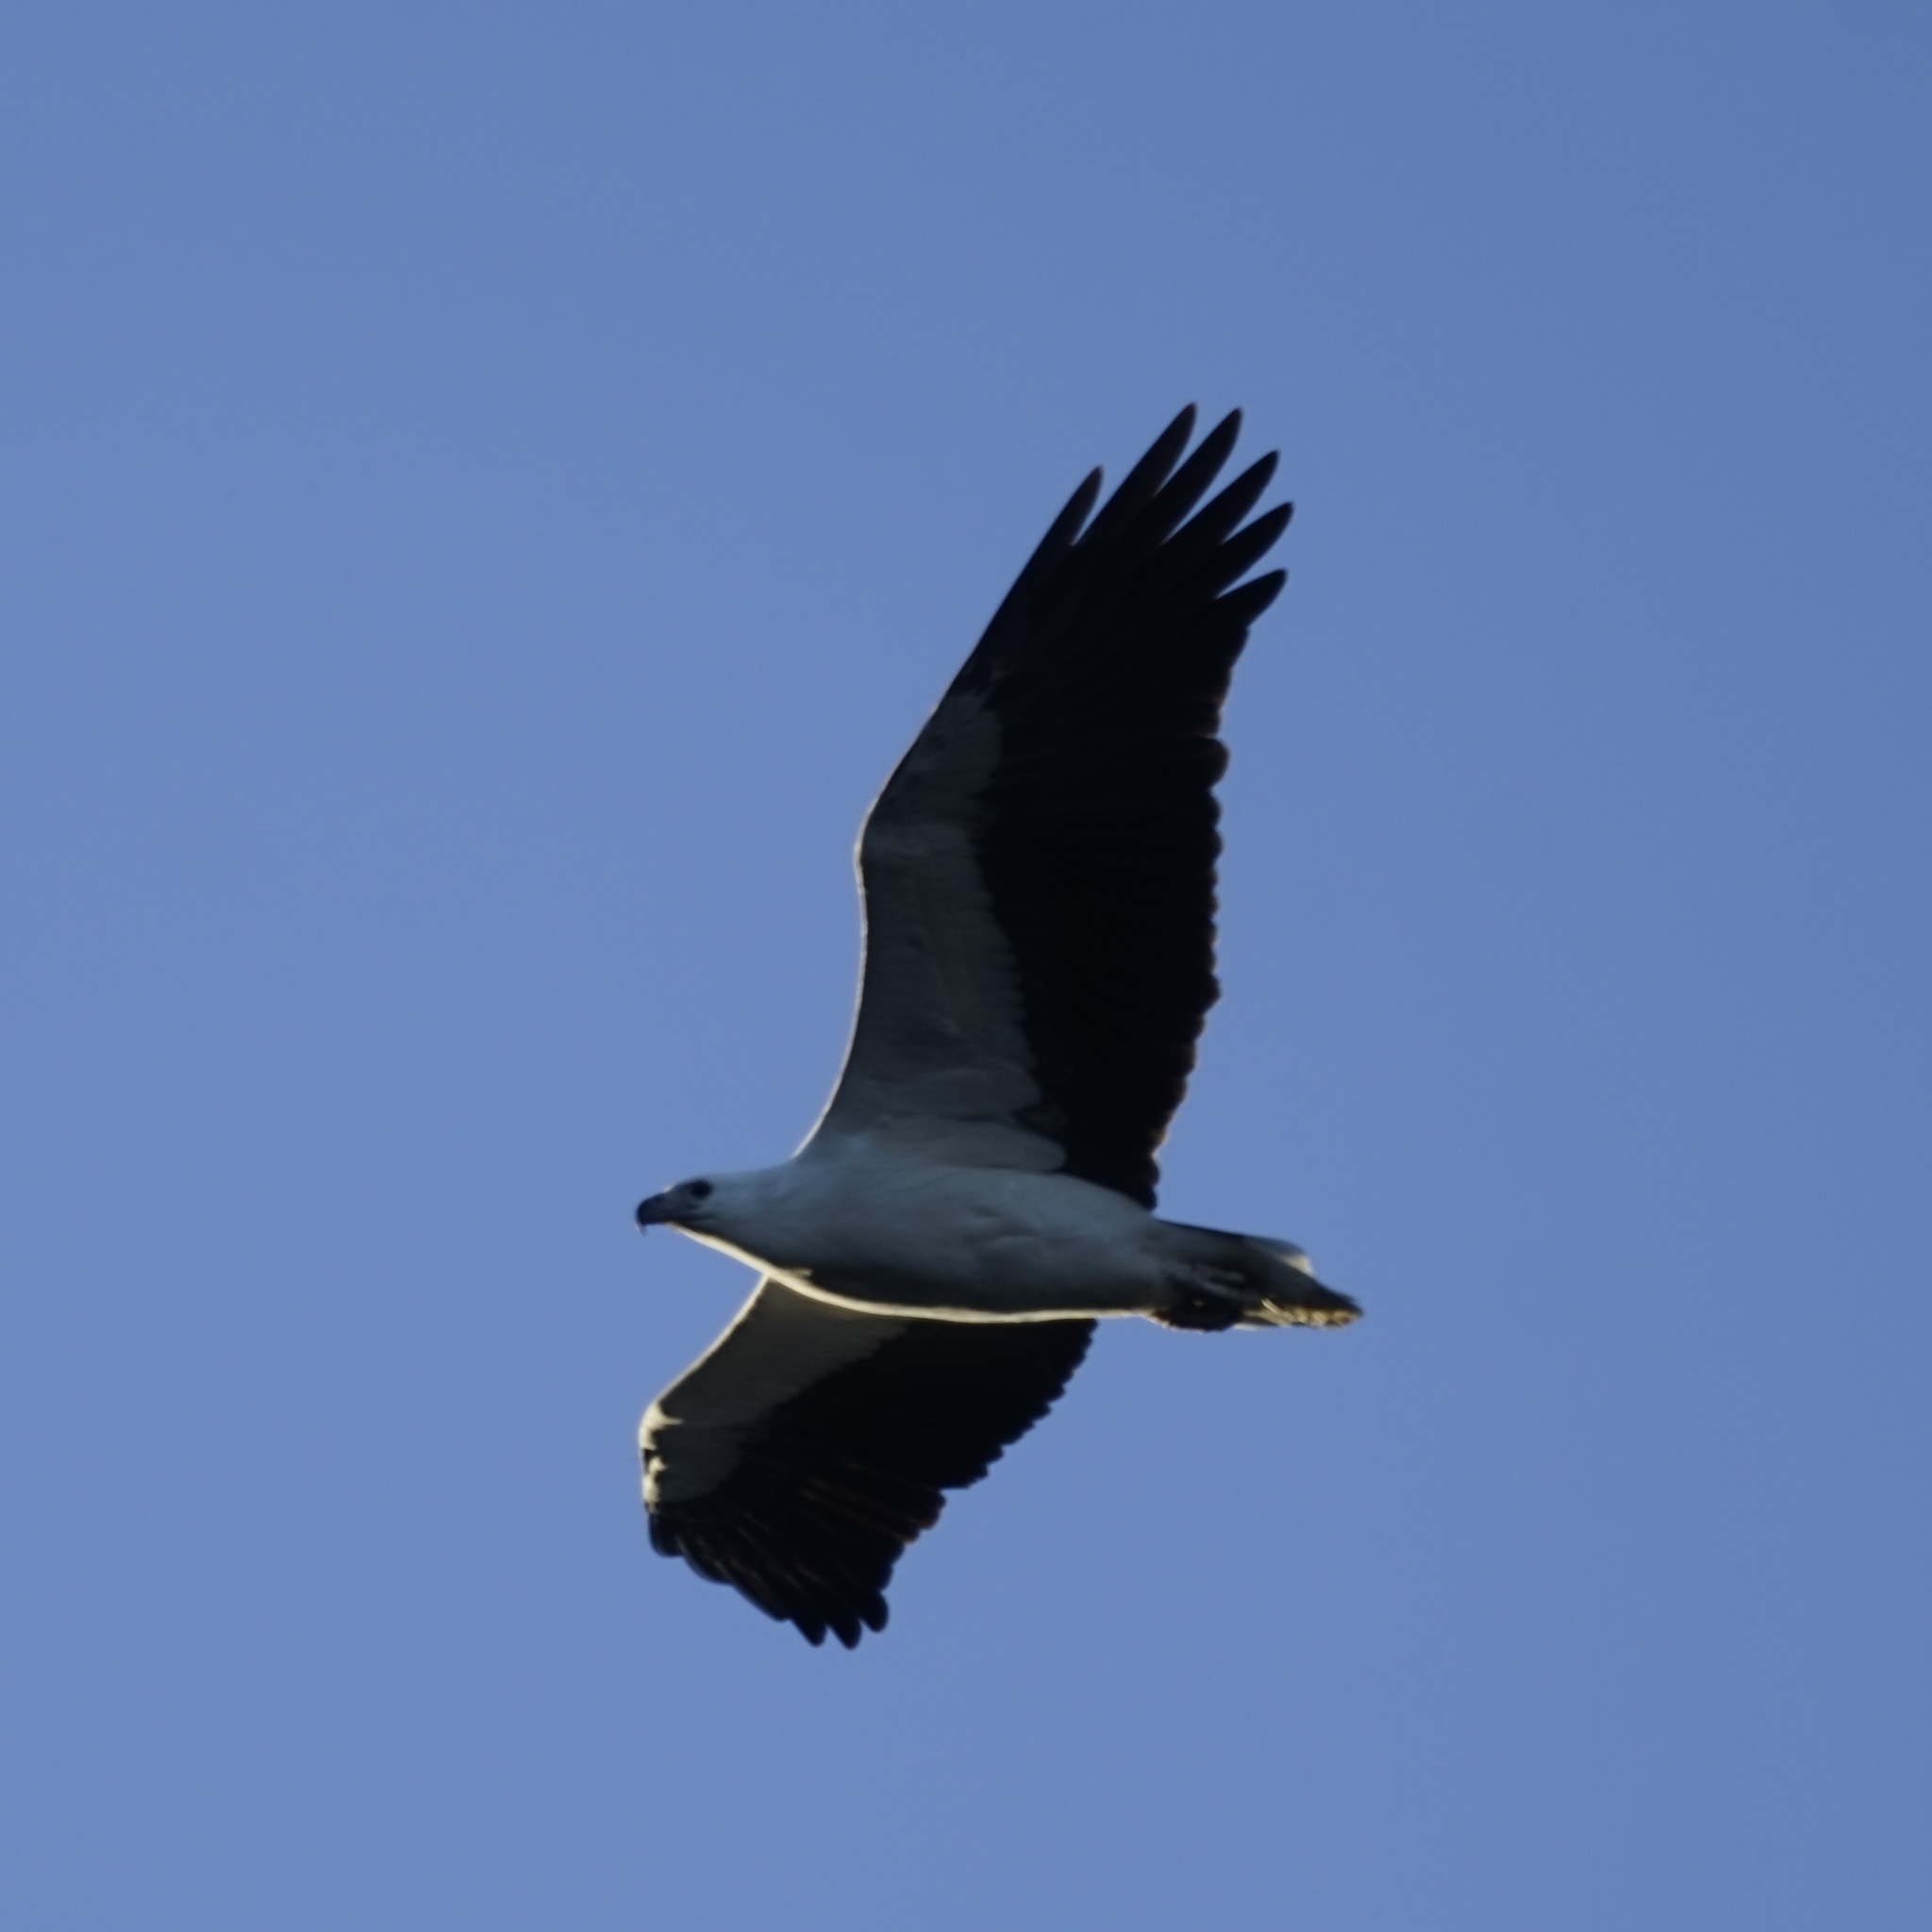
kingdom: Animalia
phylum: Chordata
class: Aves
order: Accipitriformes
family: Accipitridae
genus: Haliaeetus
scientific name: Haliaeetus leucogaster
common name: White-bellied sea eagle
